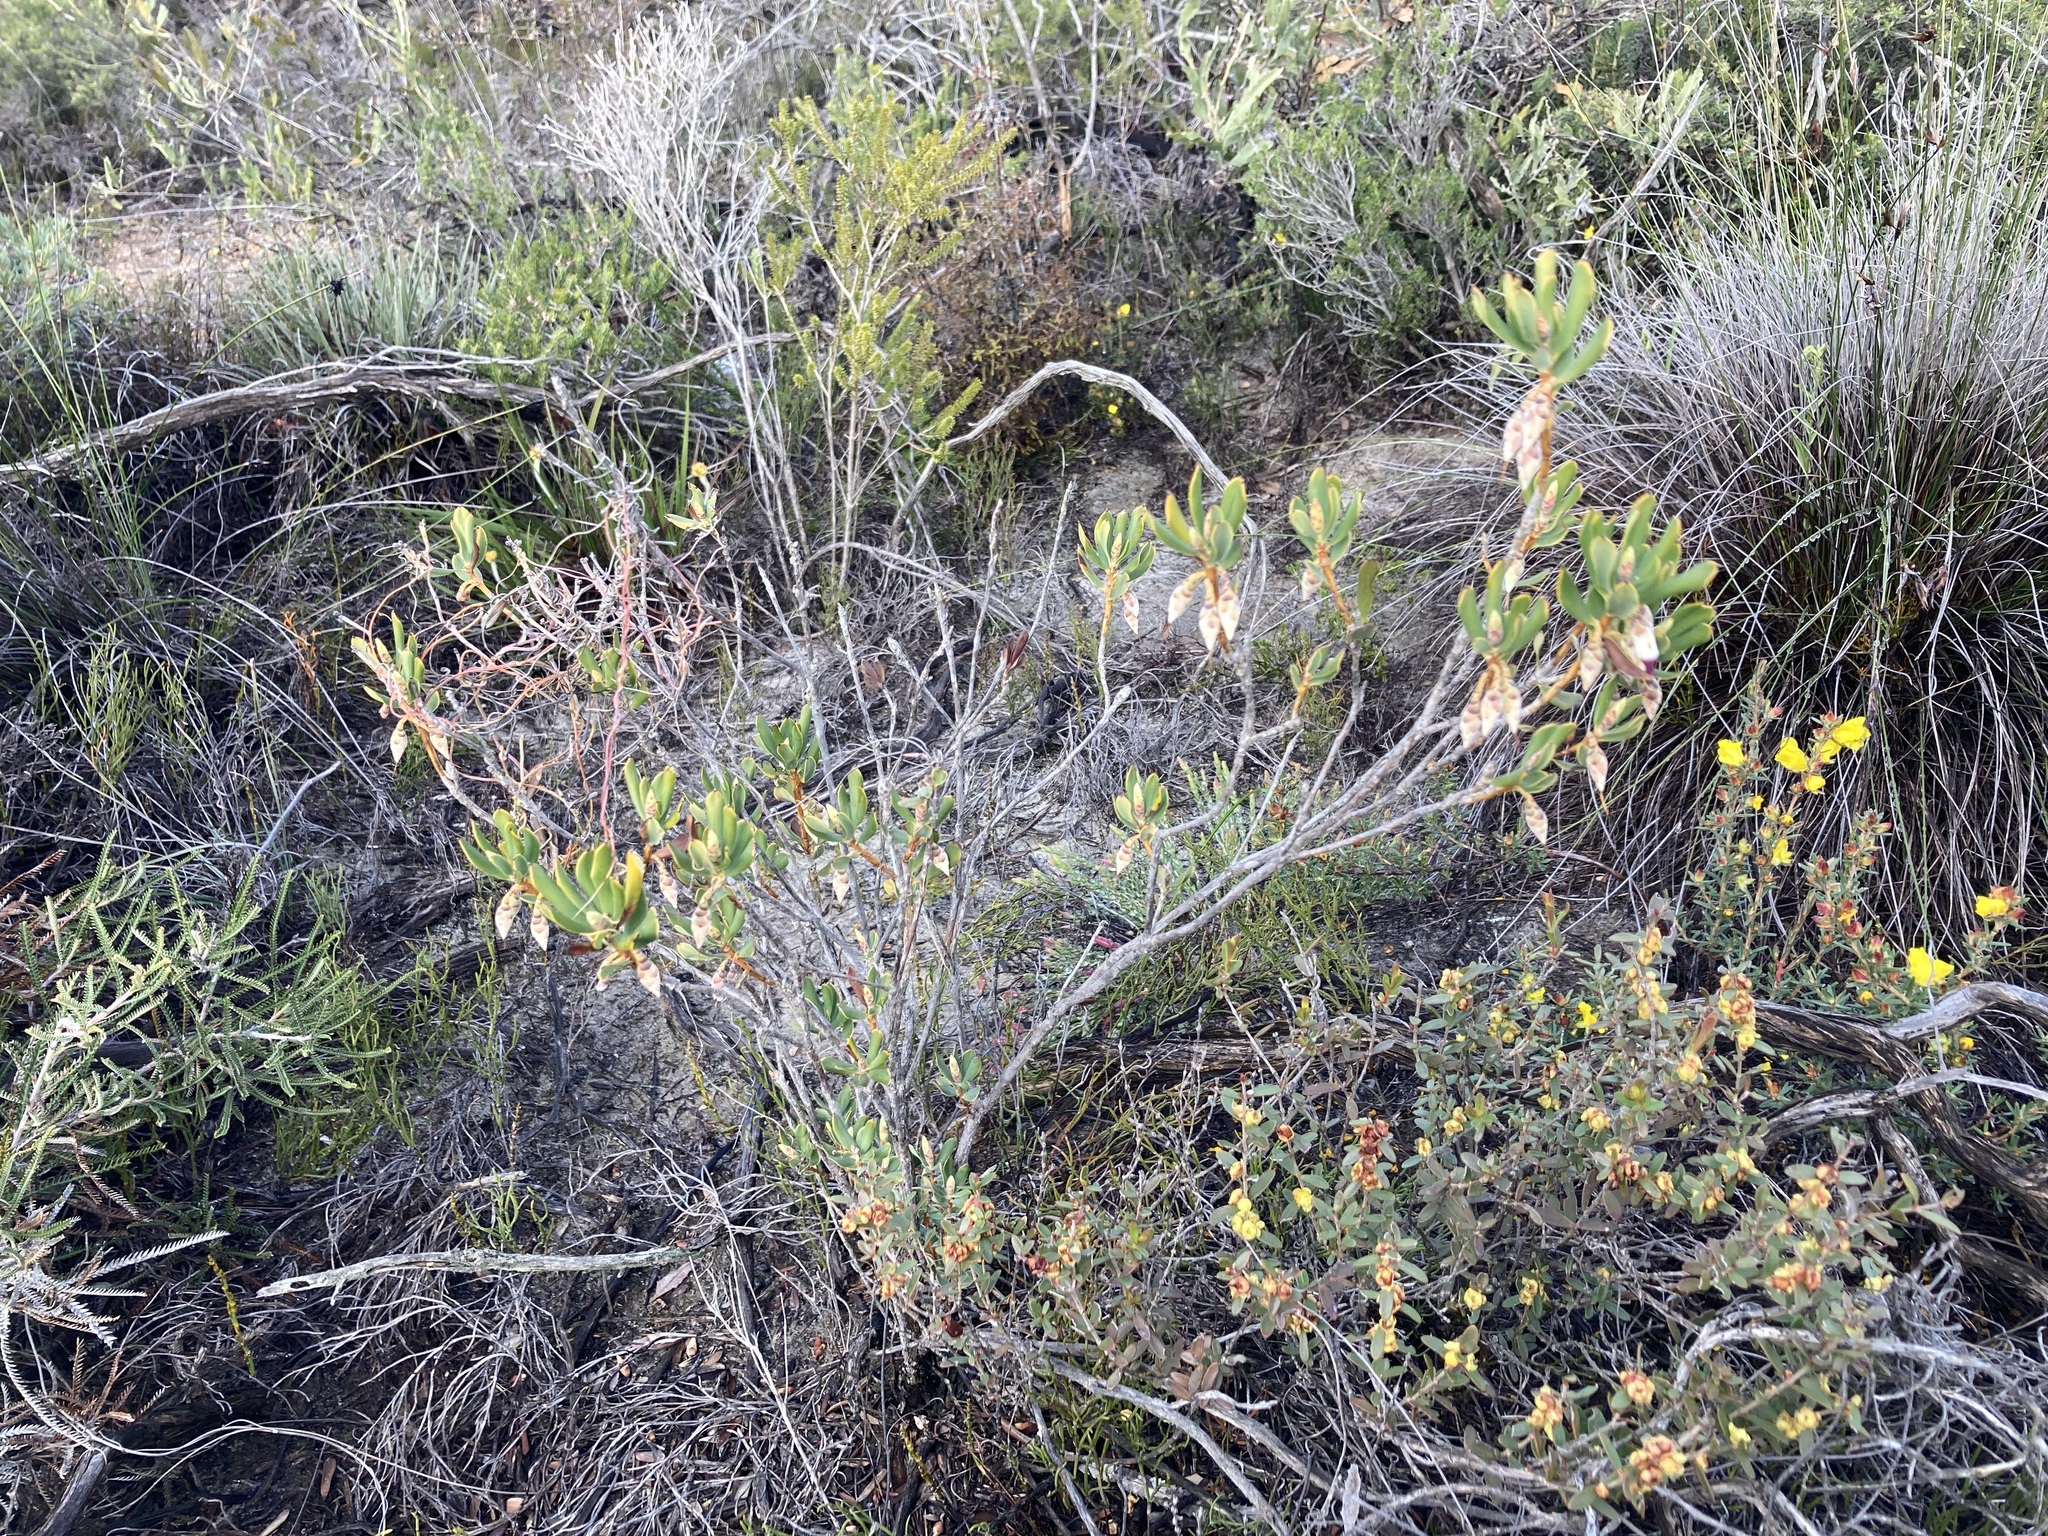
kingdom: Plantae
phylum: Tracheophyta
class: Magnoliopsida
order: Ericales
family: Ericaceae
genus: Conostephium
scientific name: Conostephium pendulum
